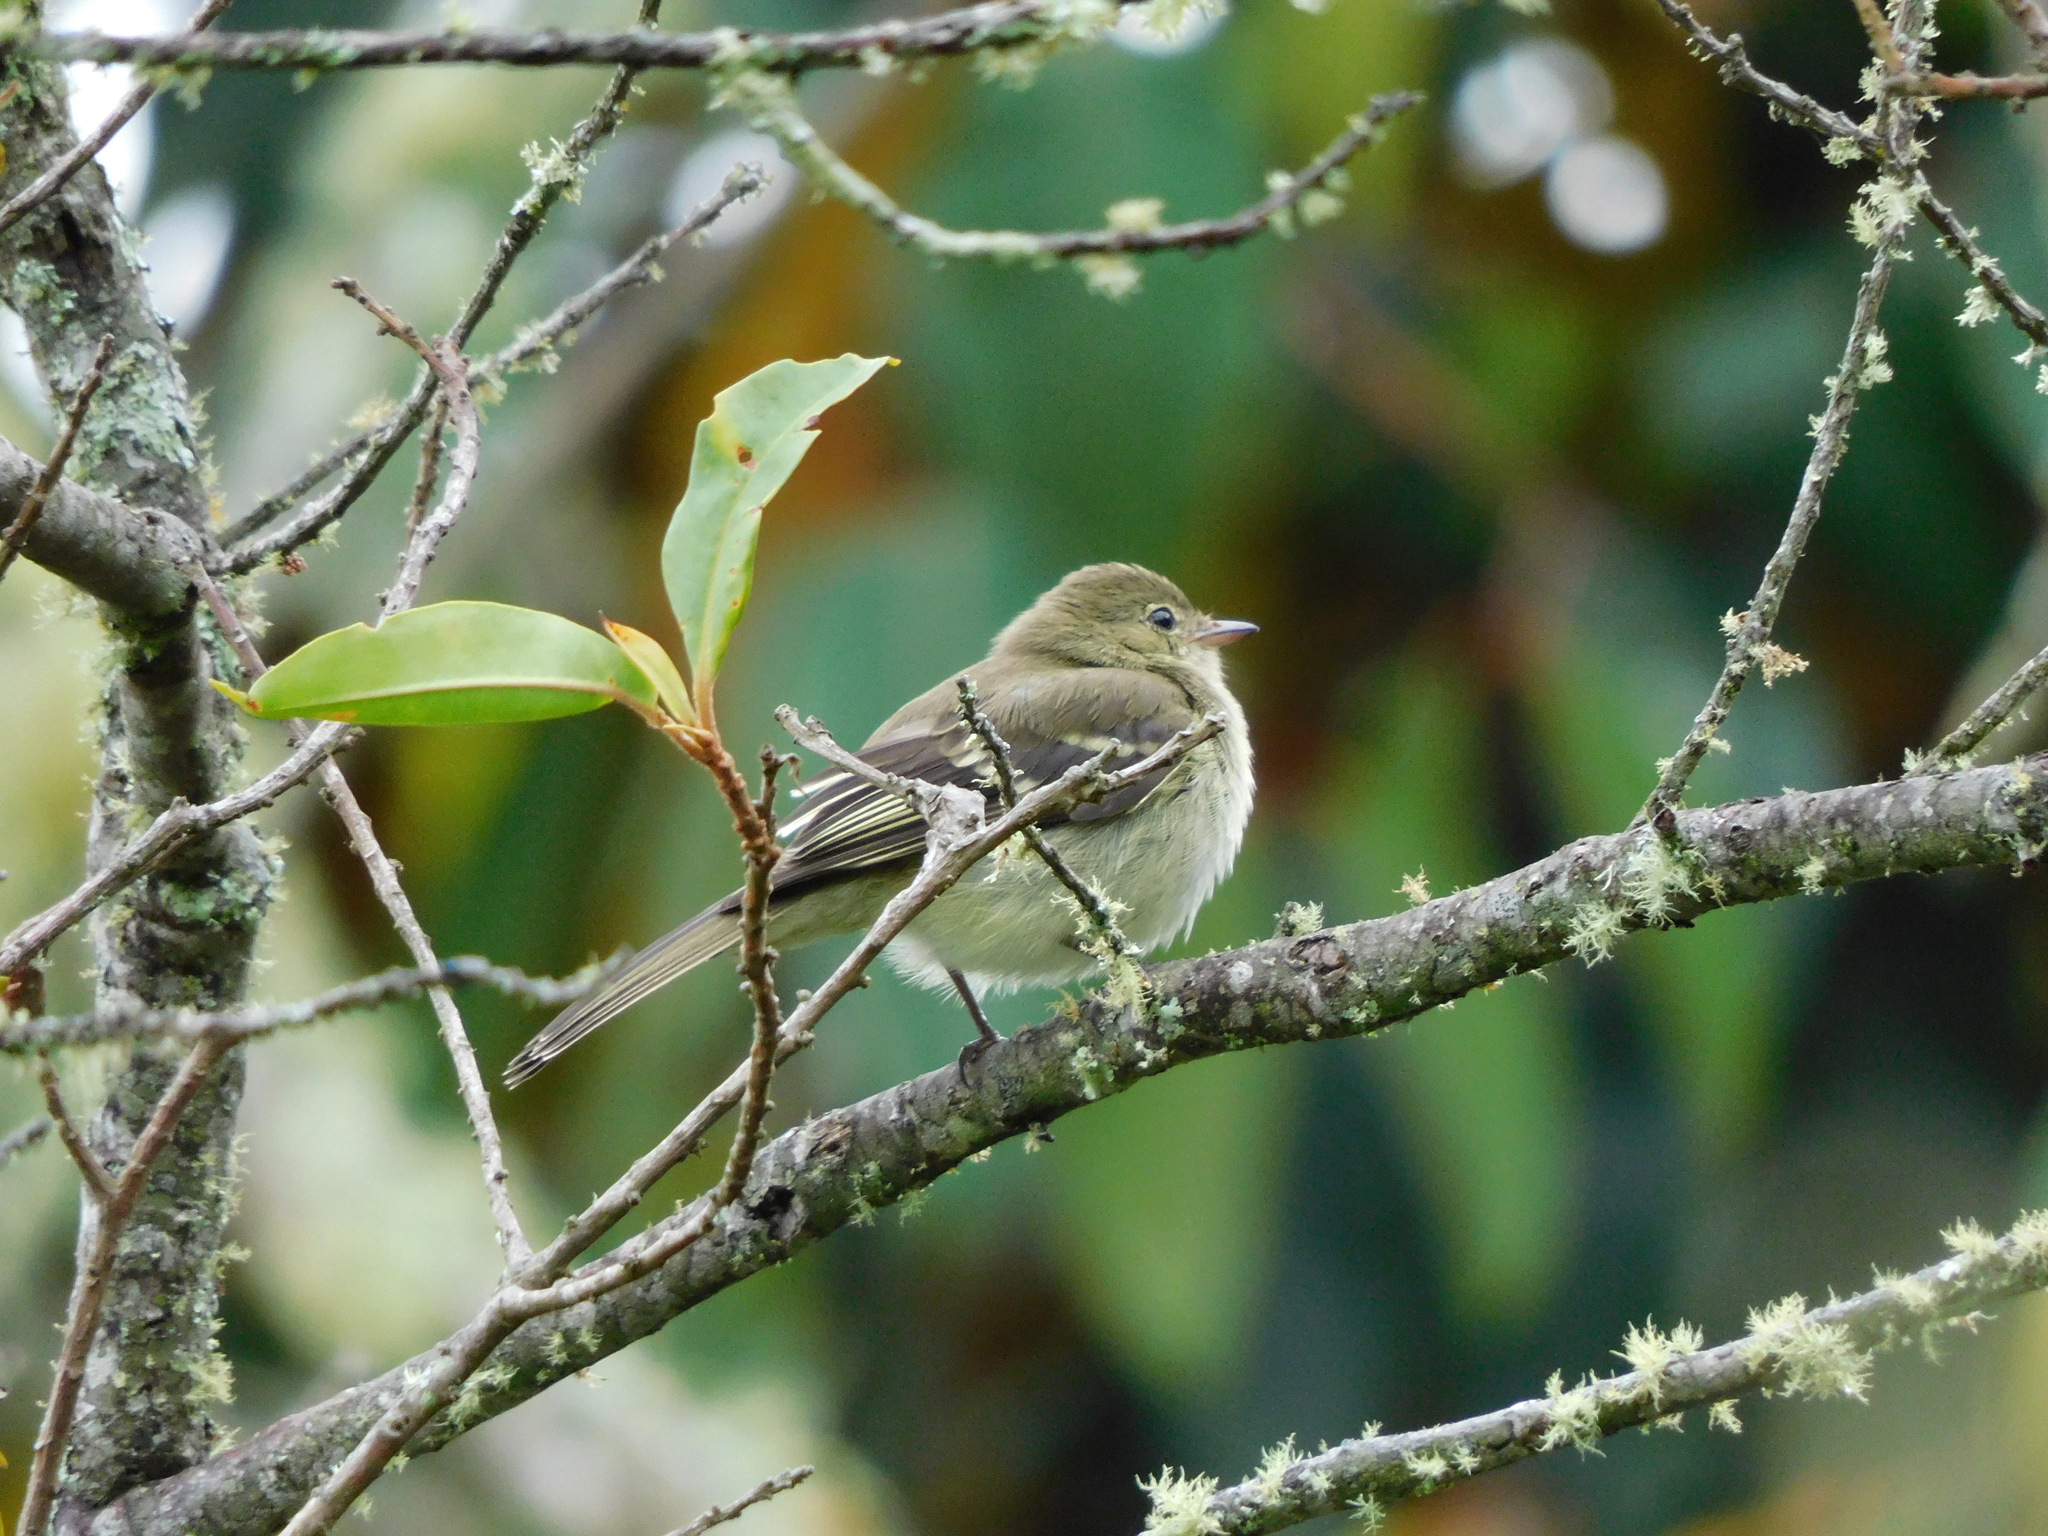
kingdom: Animalia
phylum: Chordata
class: Aves
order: Passeriformes
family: Tyrannidae
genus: Elaenia
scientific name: Elaenia frantzii
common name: Mountain elaenia
